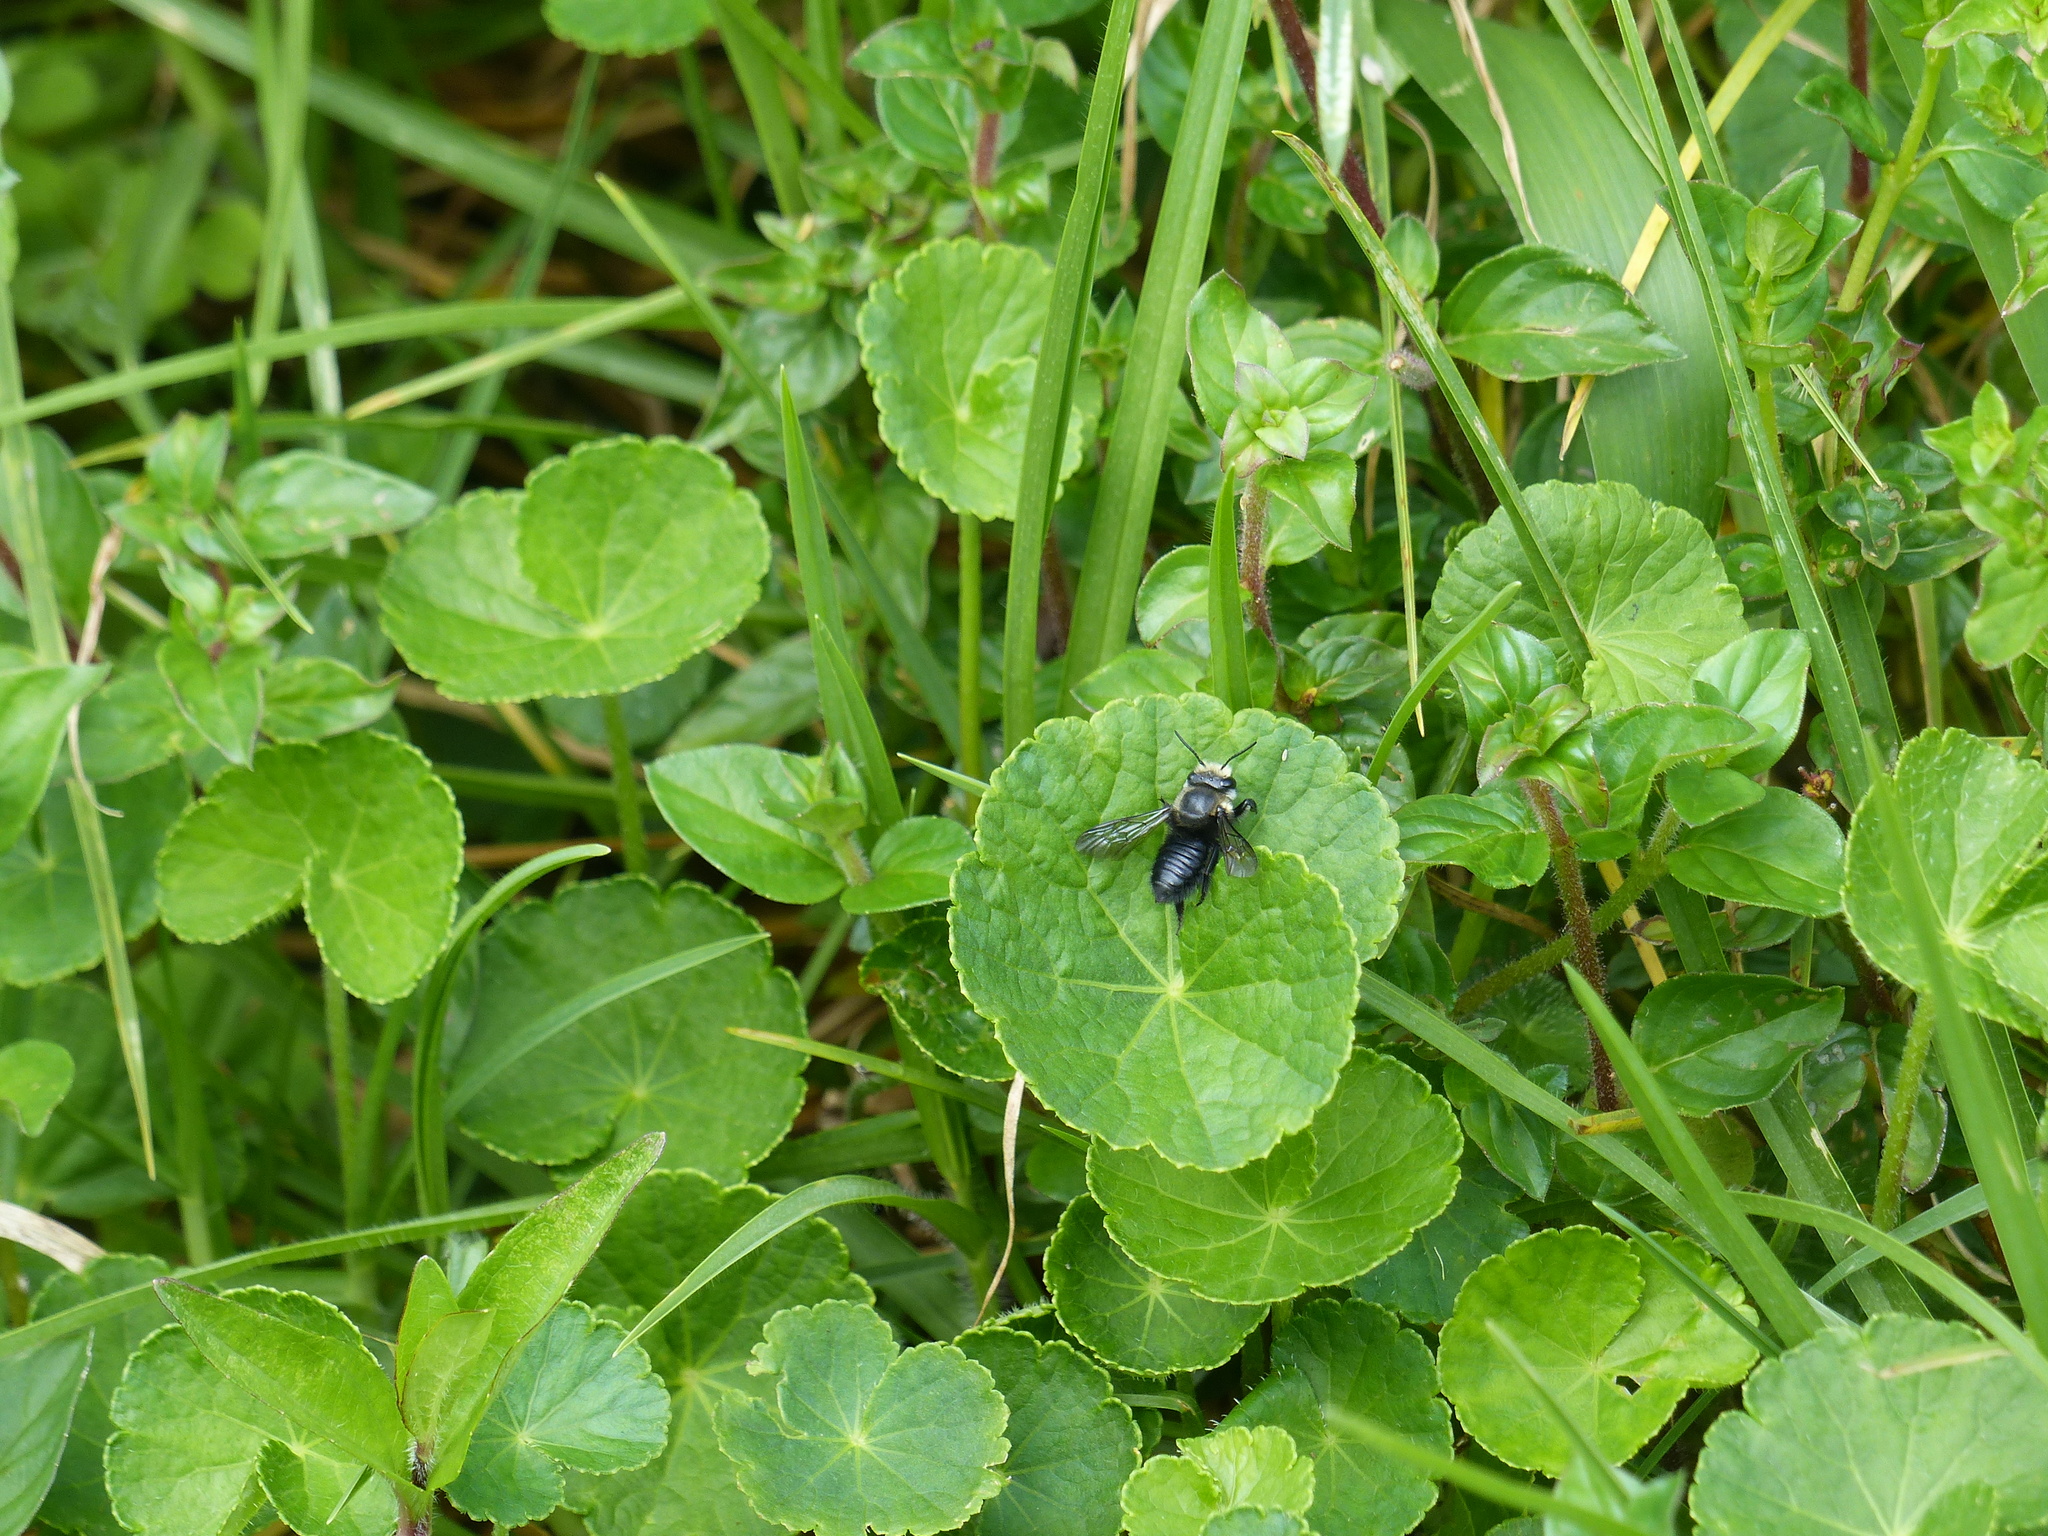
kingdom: Animalia
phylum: Arthropoda
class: Insecta
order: Hymenoptera
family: Megachilidae
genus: Megachile
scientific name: Megachile amparo
